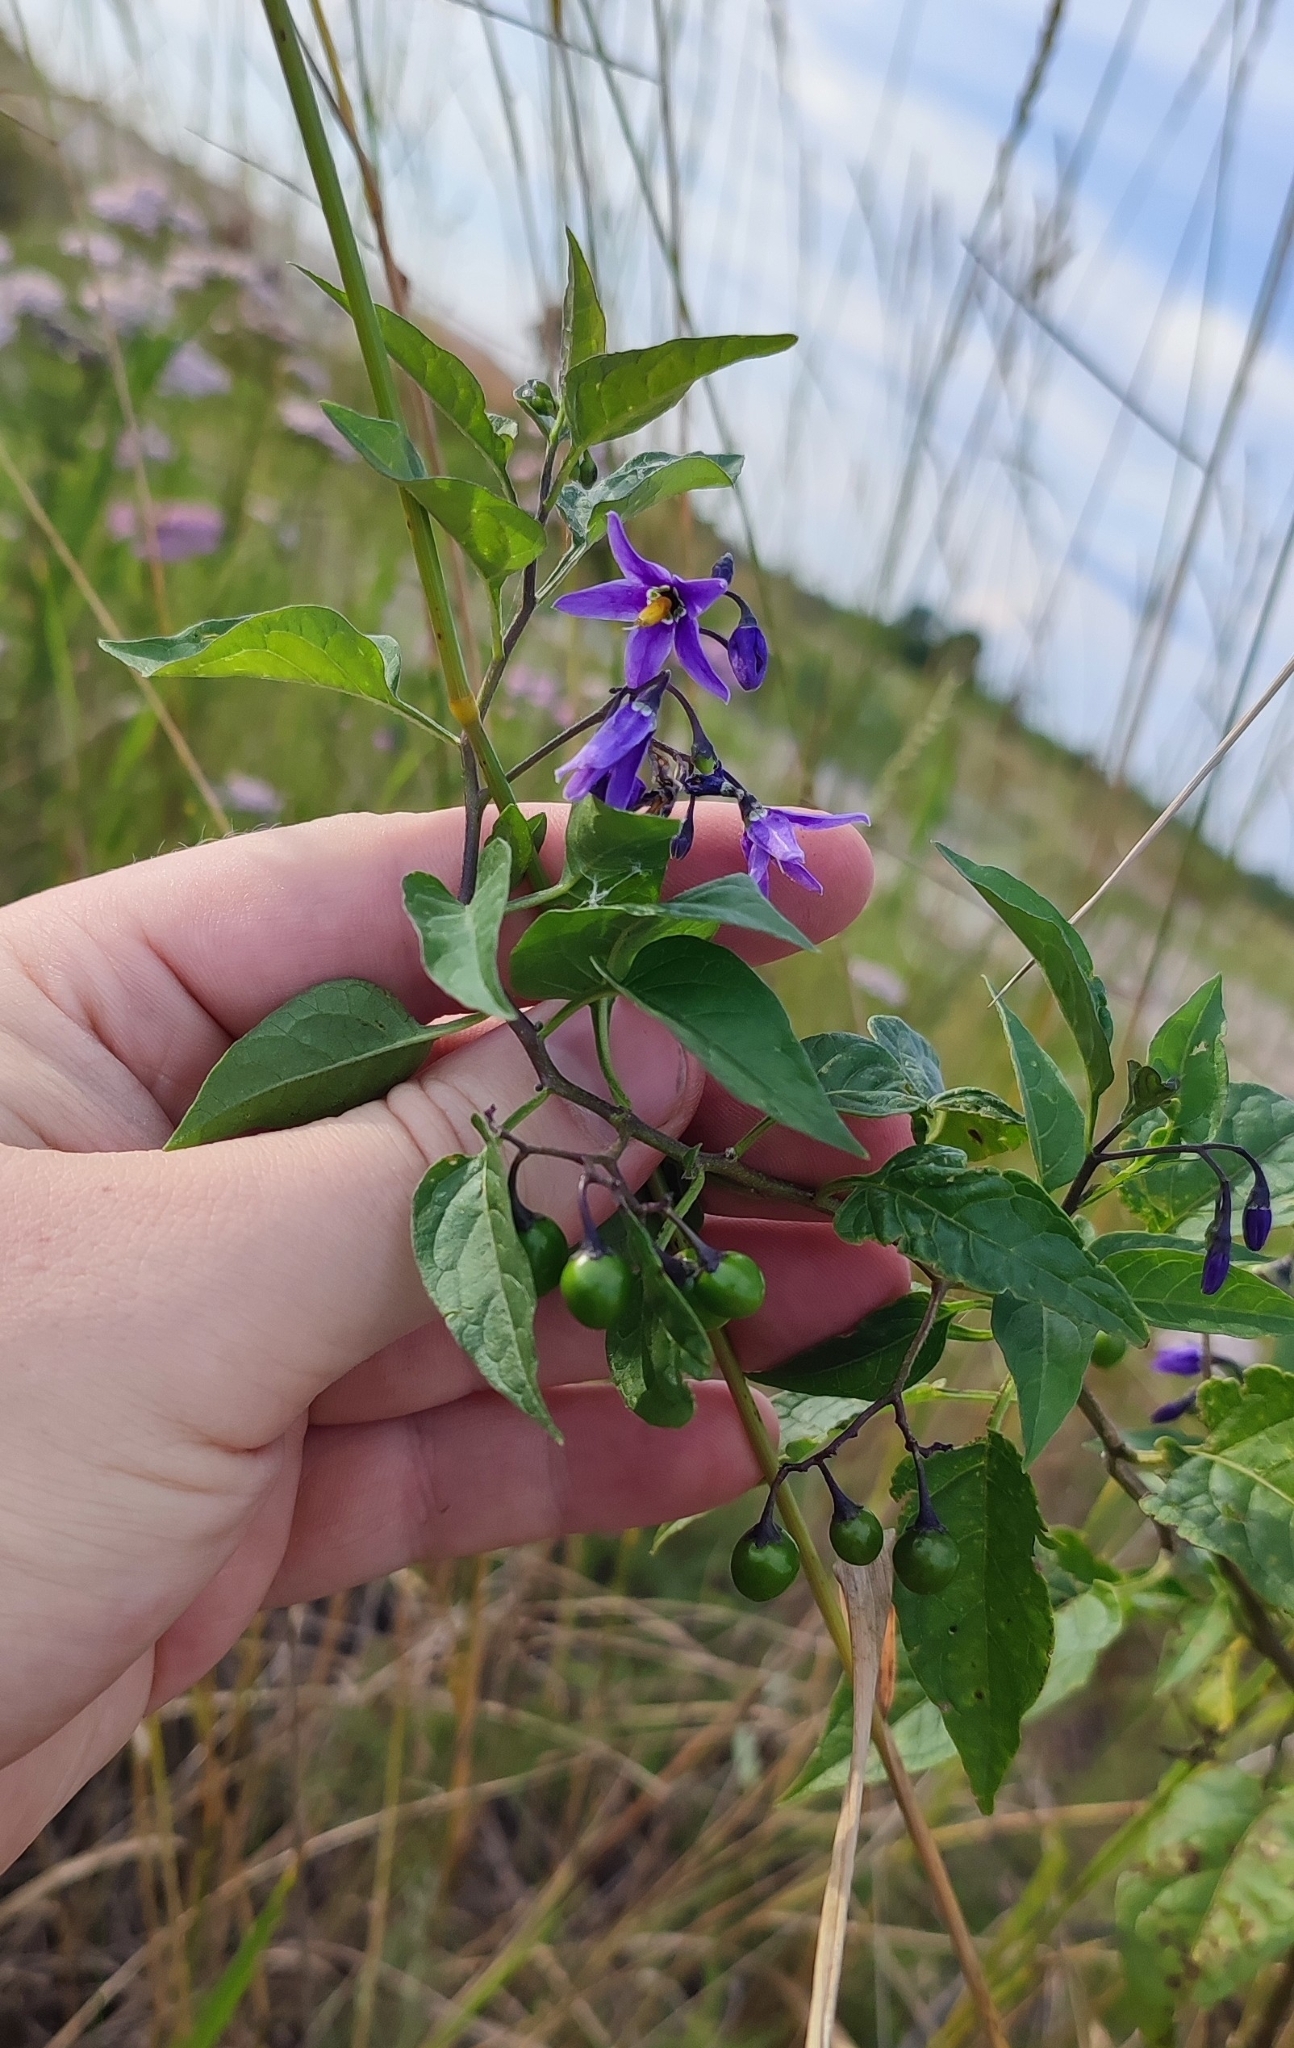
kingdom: Plantae
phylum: Tracheophyta
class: Magnoliopsida
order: Solanales
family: Solanaceae
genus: Solanum
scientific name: Solanum dulcamara
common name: Climbing nightshade
